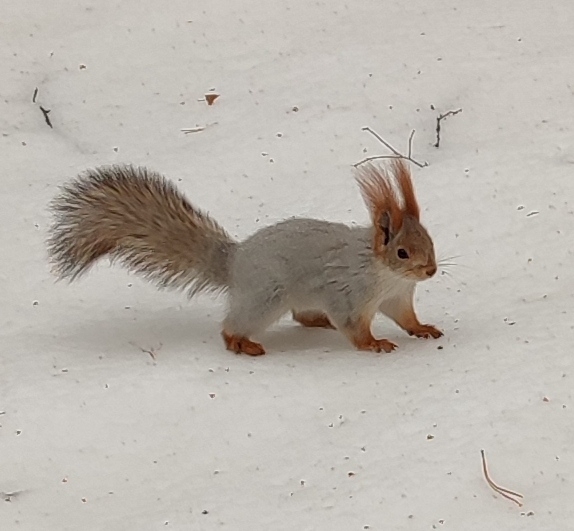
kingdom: Animalia
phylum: Chordata
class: Mammalia
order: Rodentia
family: Sciuridae
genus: Sciurus
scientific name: Sciurus vulgaris
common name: Eurasian red squirrel
